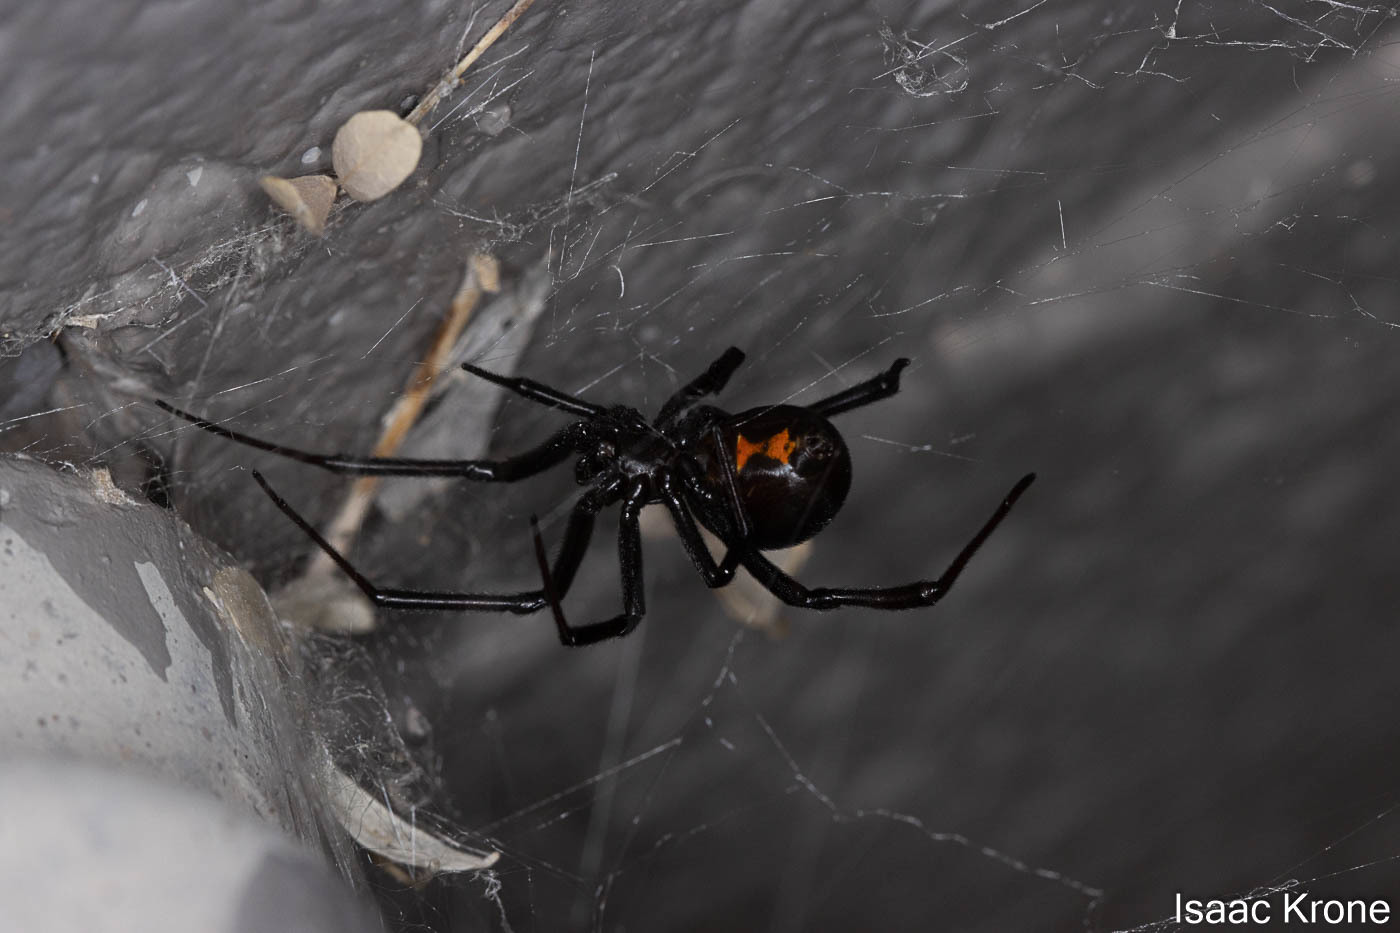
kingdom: Animalia
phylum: Arthropoda
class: Arachnida
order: Araneae
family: Theridiidae
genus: Latrodectus
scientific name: Latrodectus hesperus
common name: Western black widow
